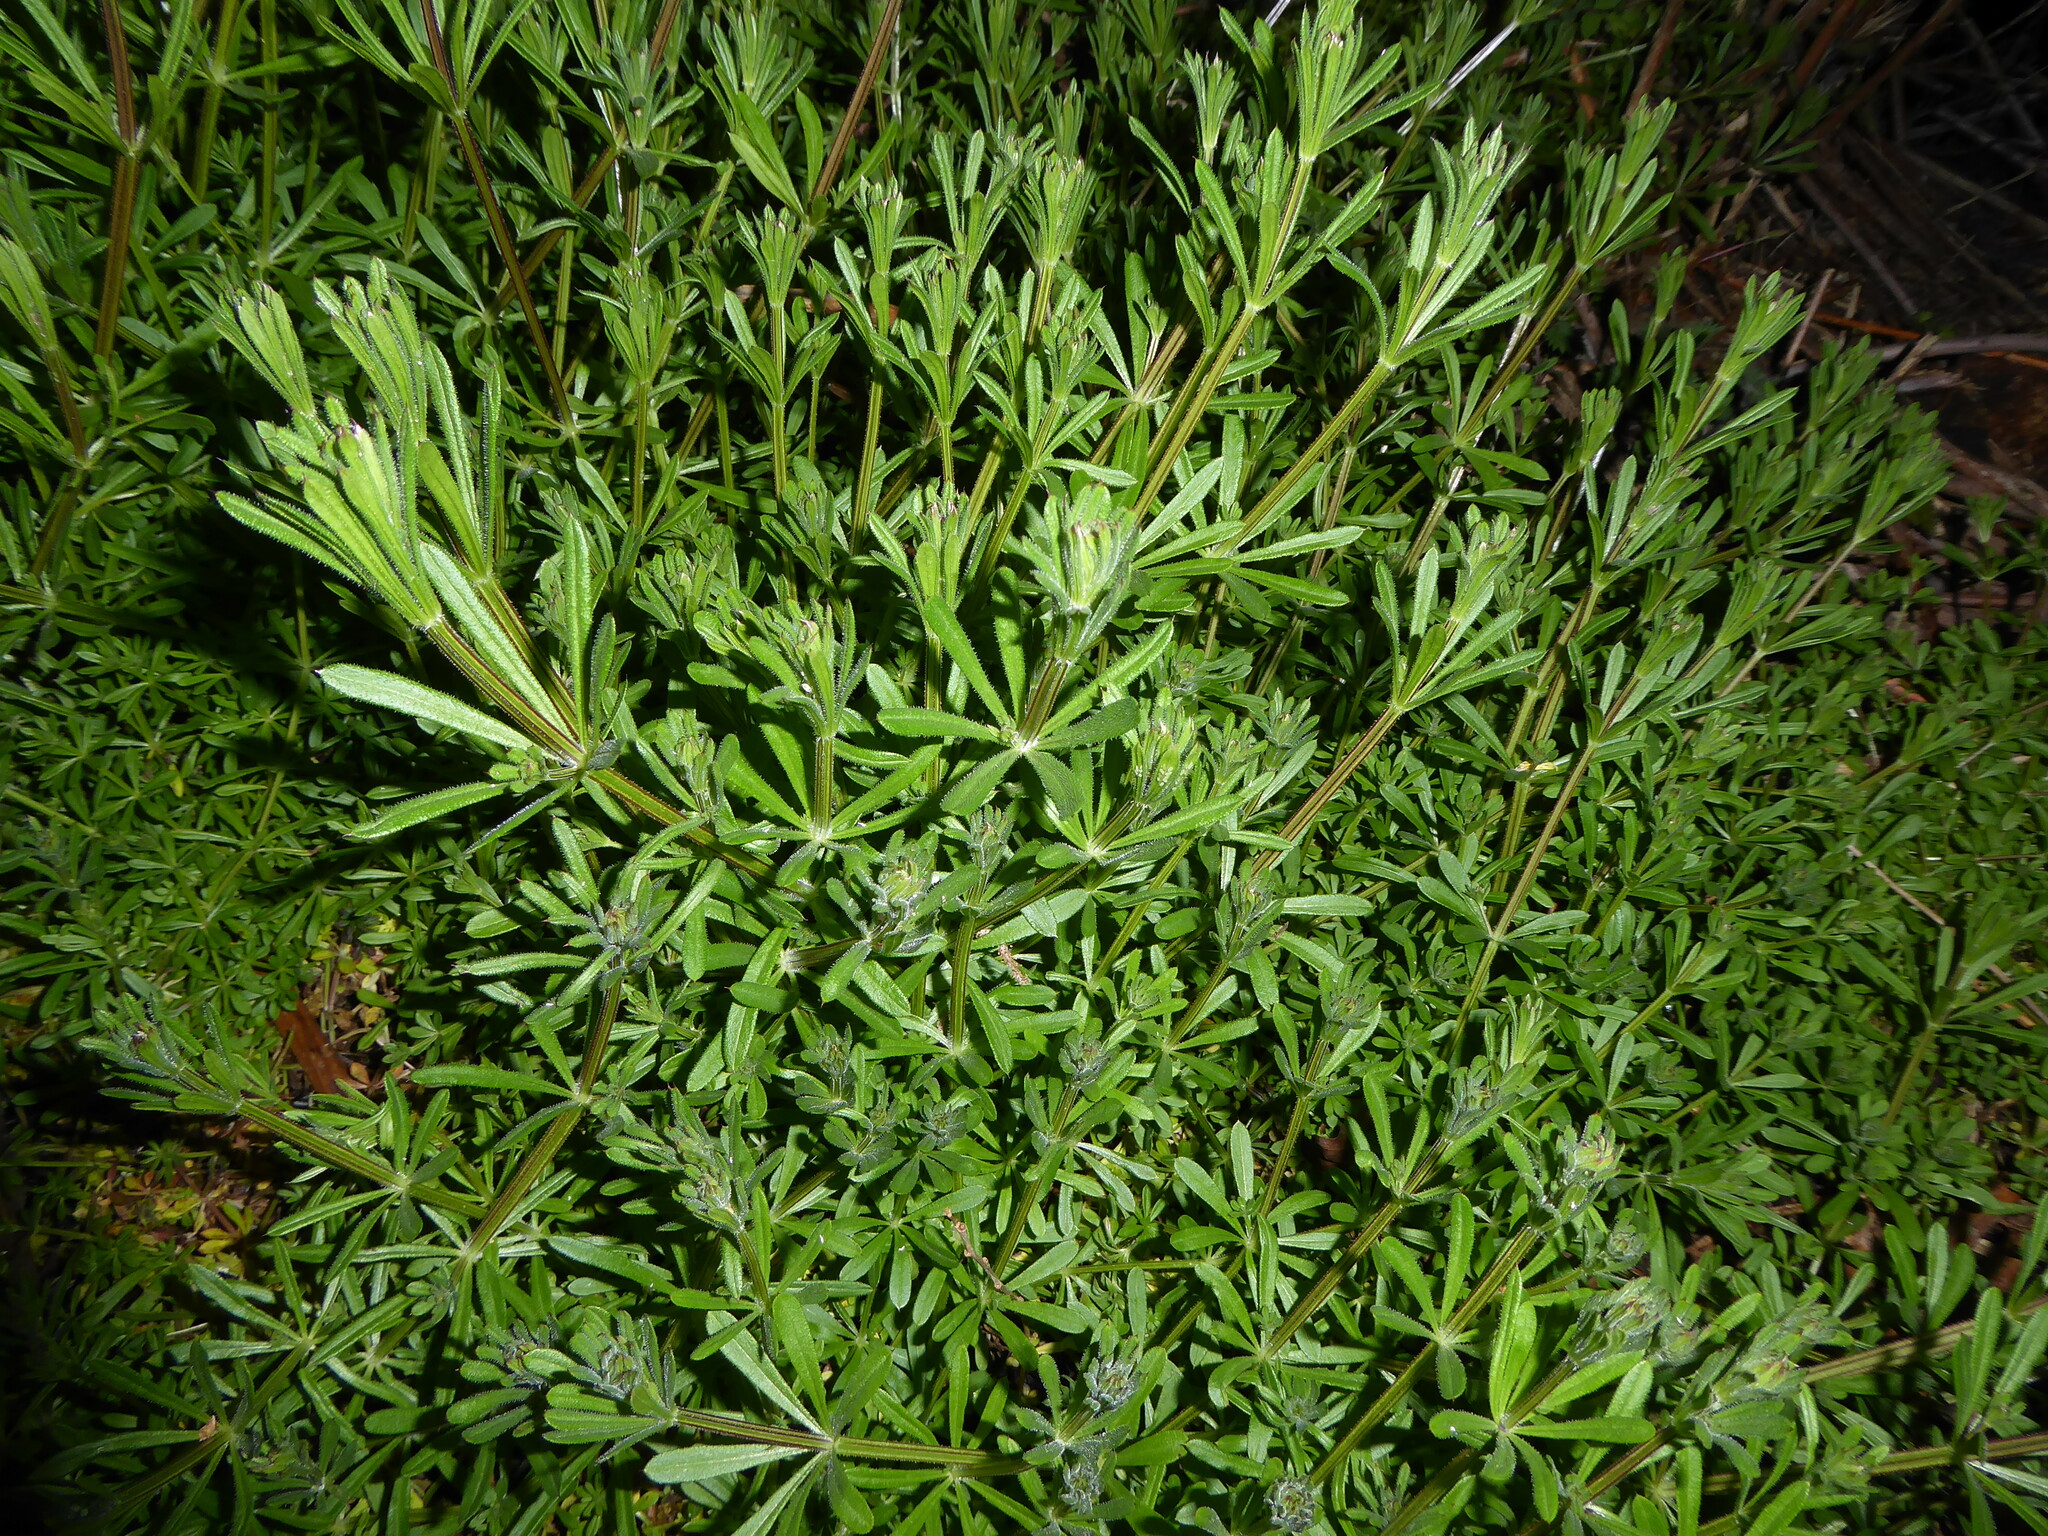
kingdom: Plantae
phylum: Tracheophyta
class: Magnoliopsida
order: Gentianales
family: Rubiaceae
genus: Galium
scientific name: Galium aparine
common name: Cleavers
